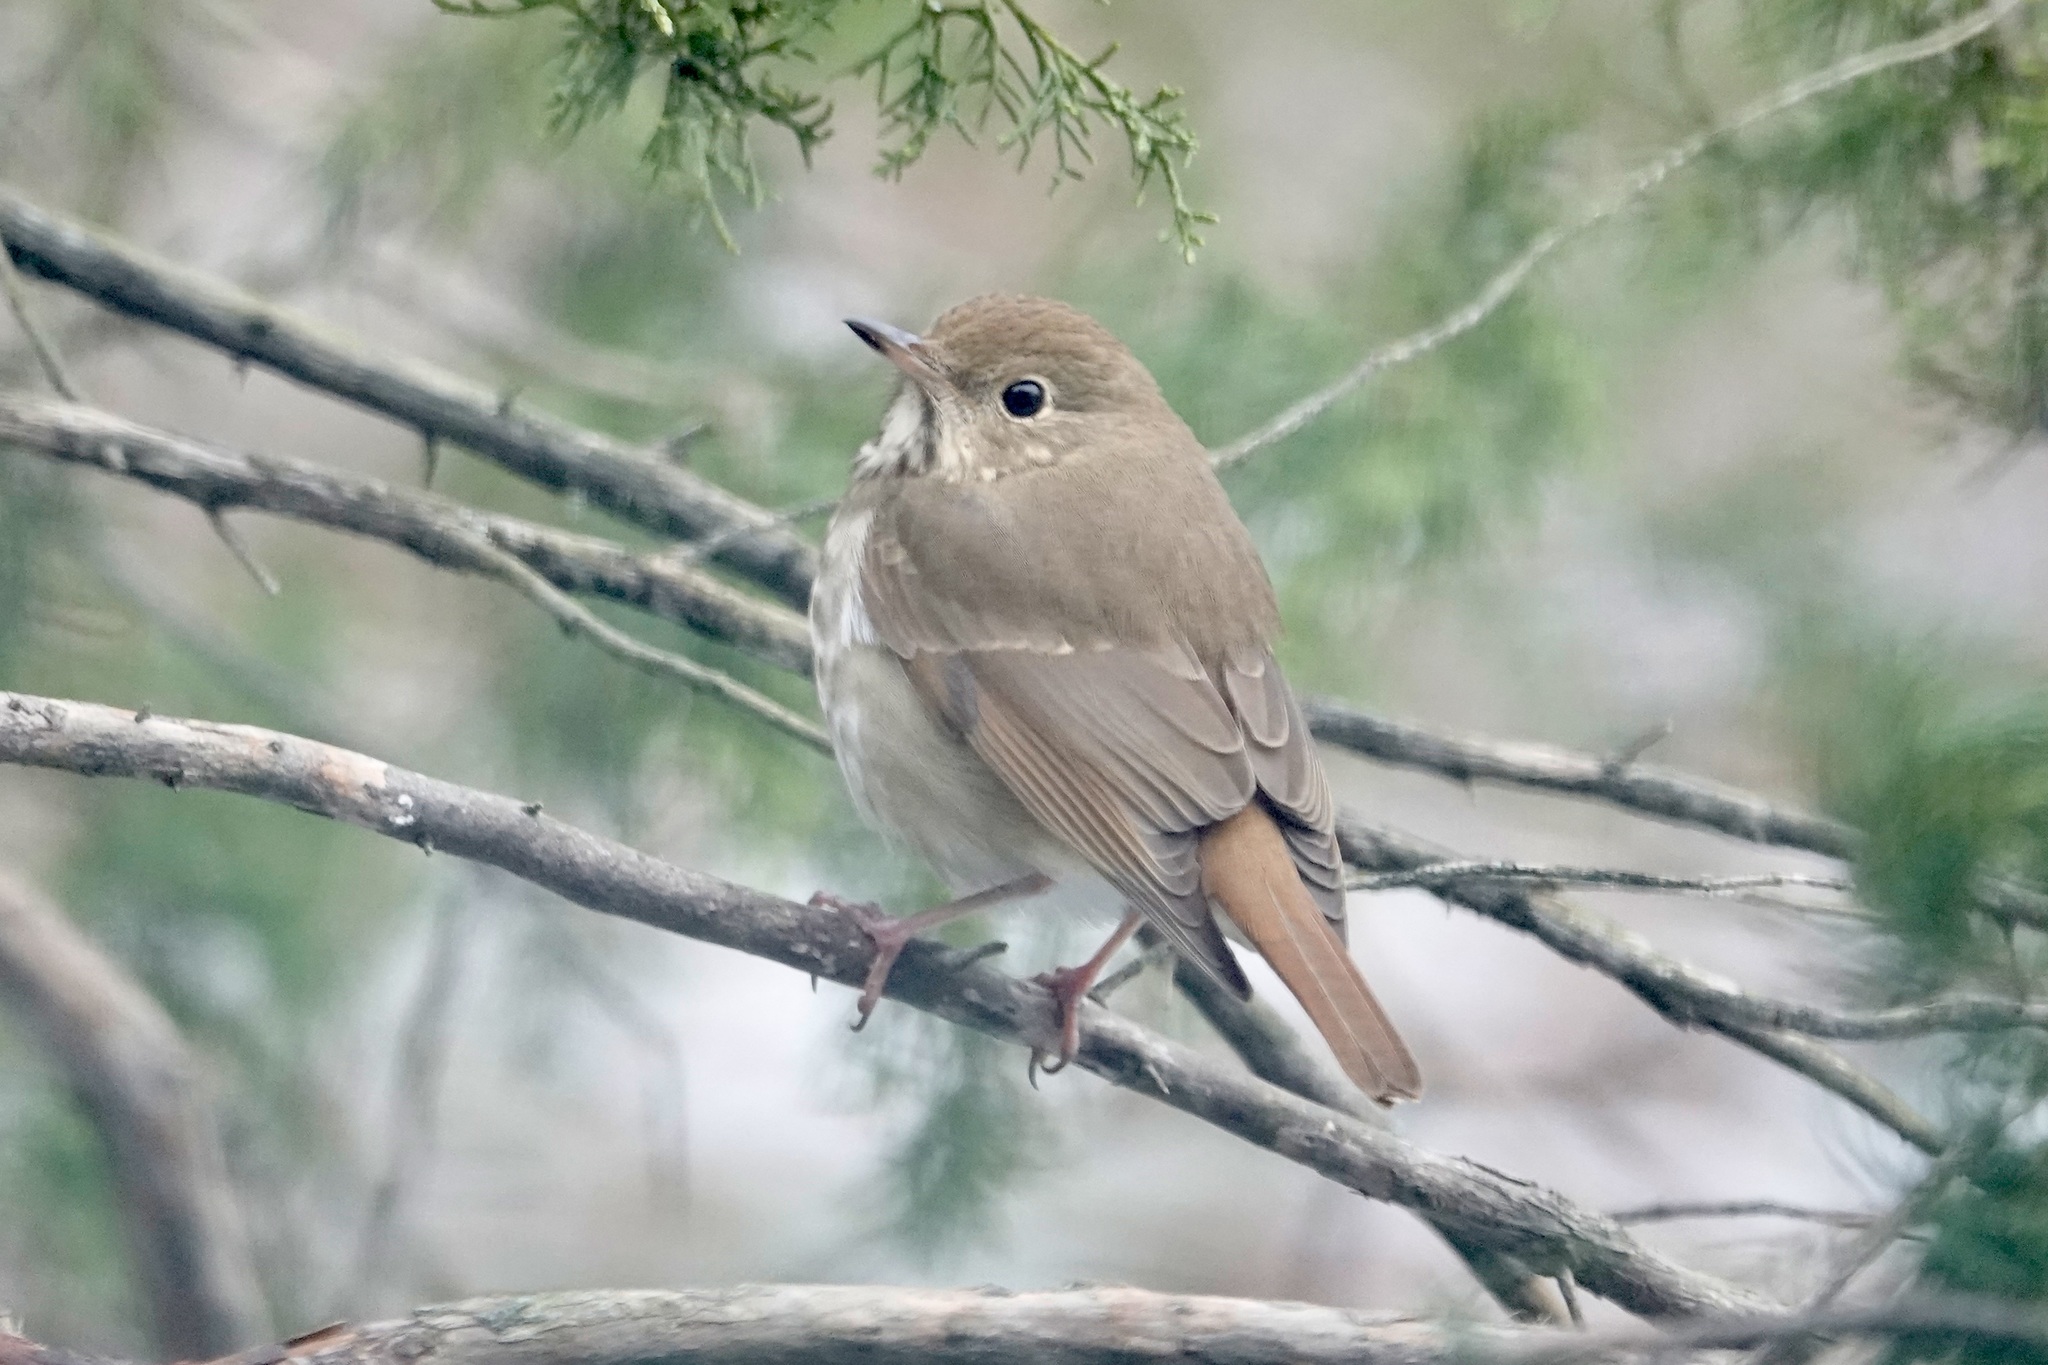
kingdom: Animalia
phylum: Chordata
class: Aves
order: Passeriformes
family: Turdidae
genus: Catharus
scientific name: Catharus guttatus
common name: Hermit thrush
